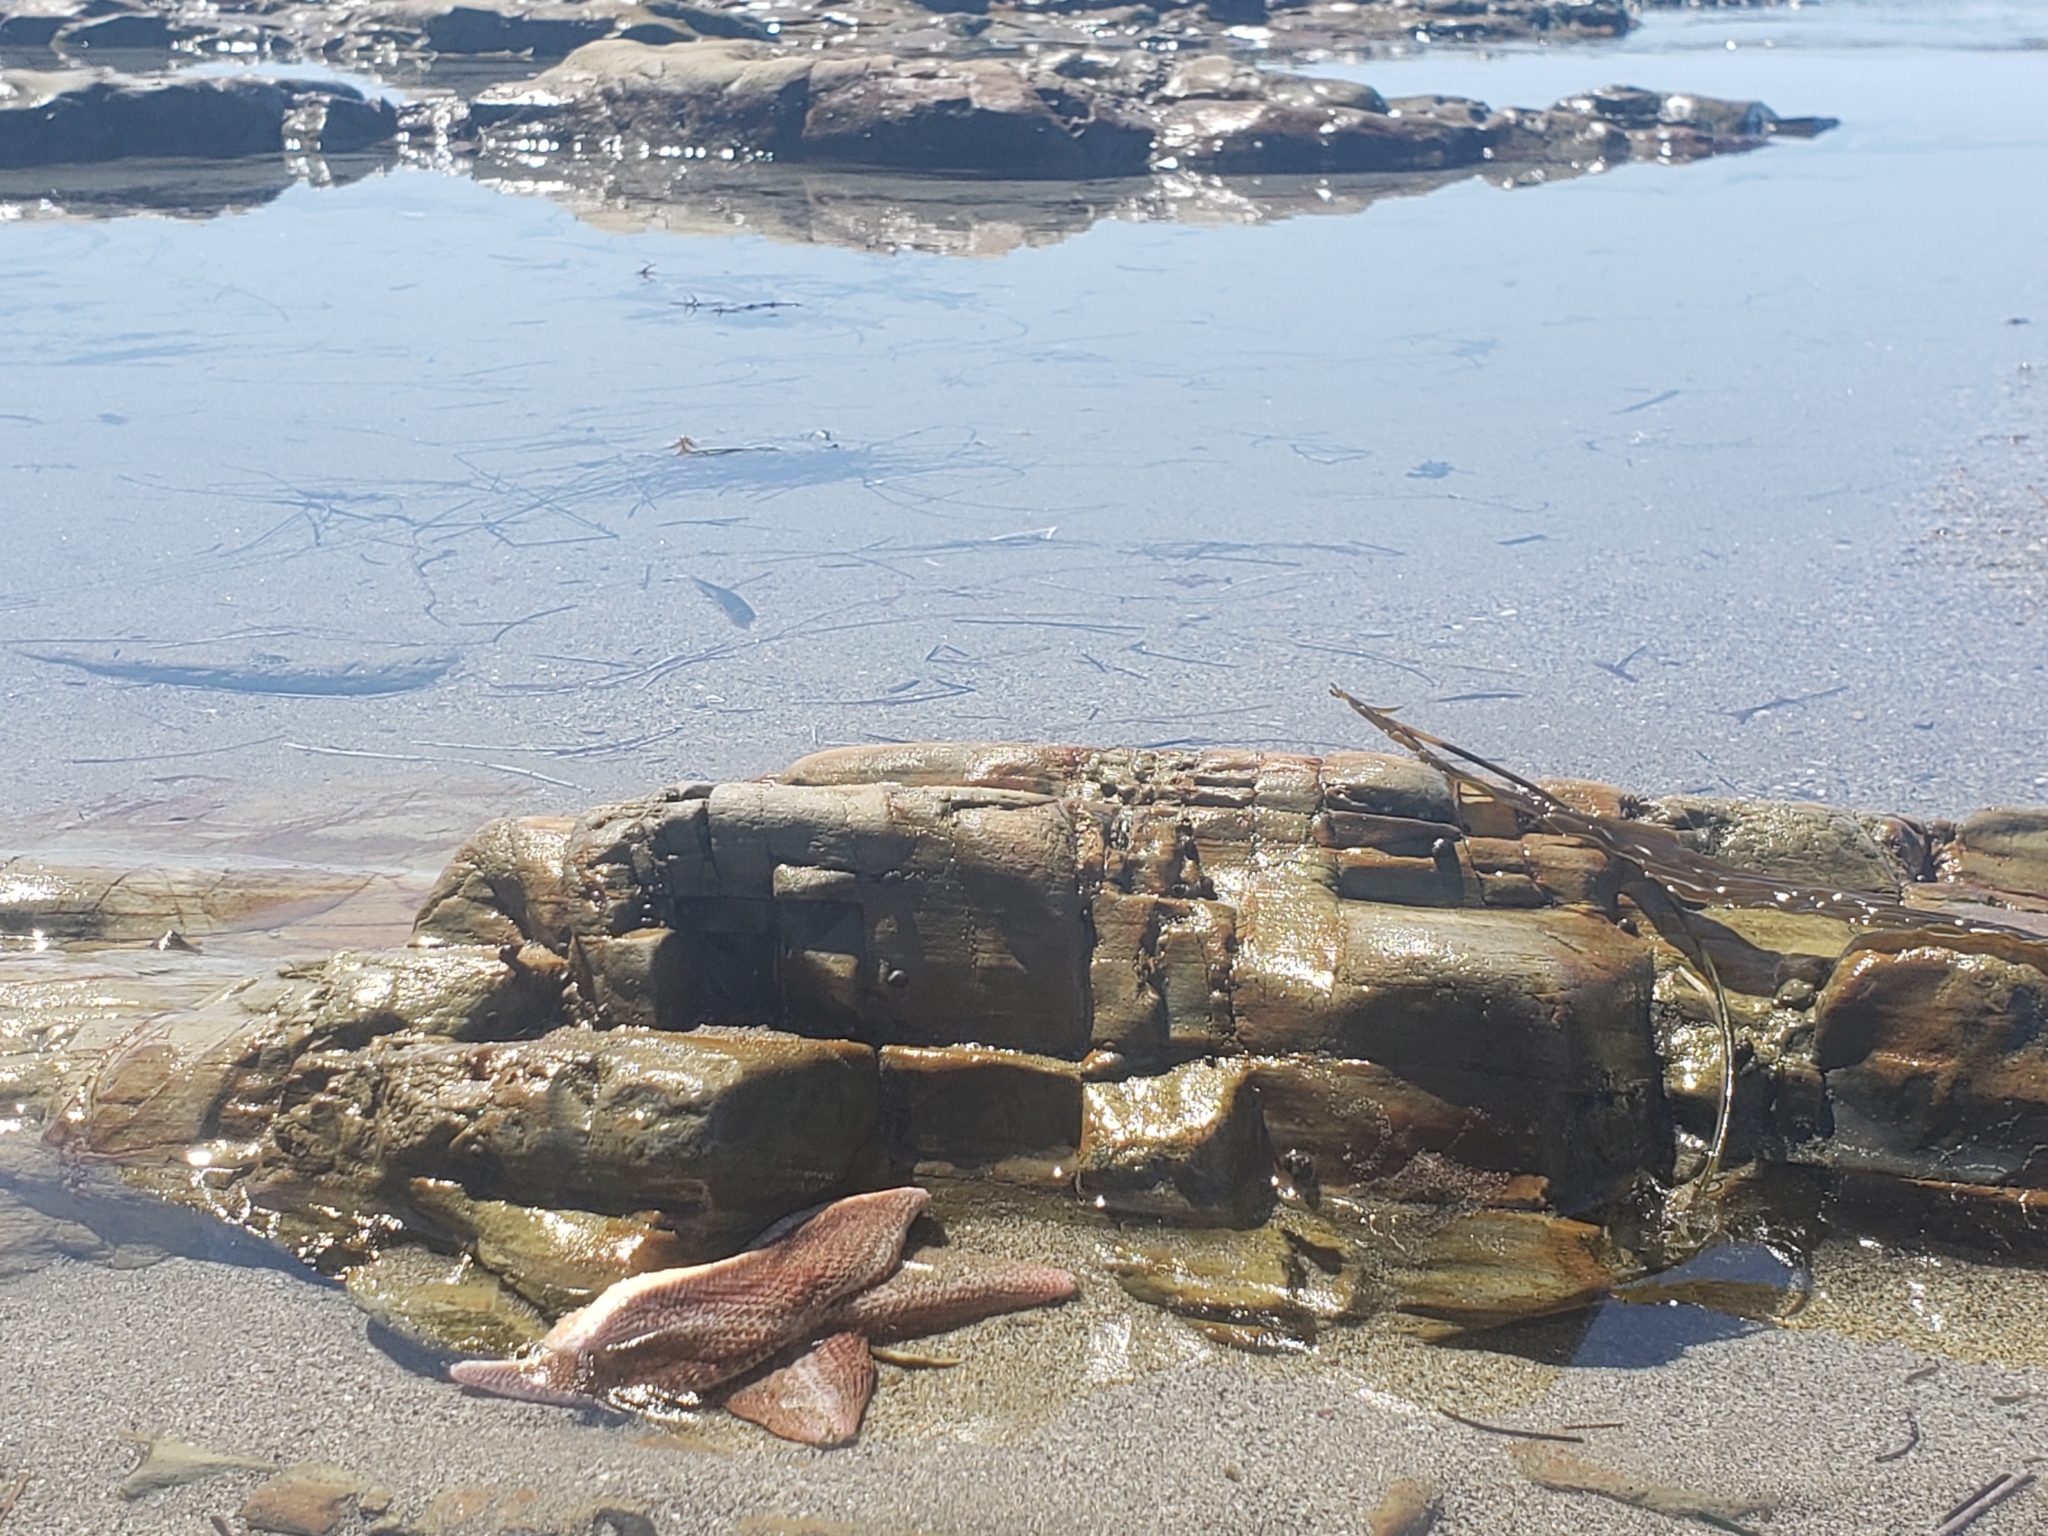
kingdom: Animalia
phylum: Echinodermata
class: Asteroidea
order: Valvatida
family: Asterinidae
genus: Patiria
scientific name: Patiria miniata
